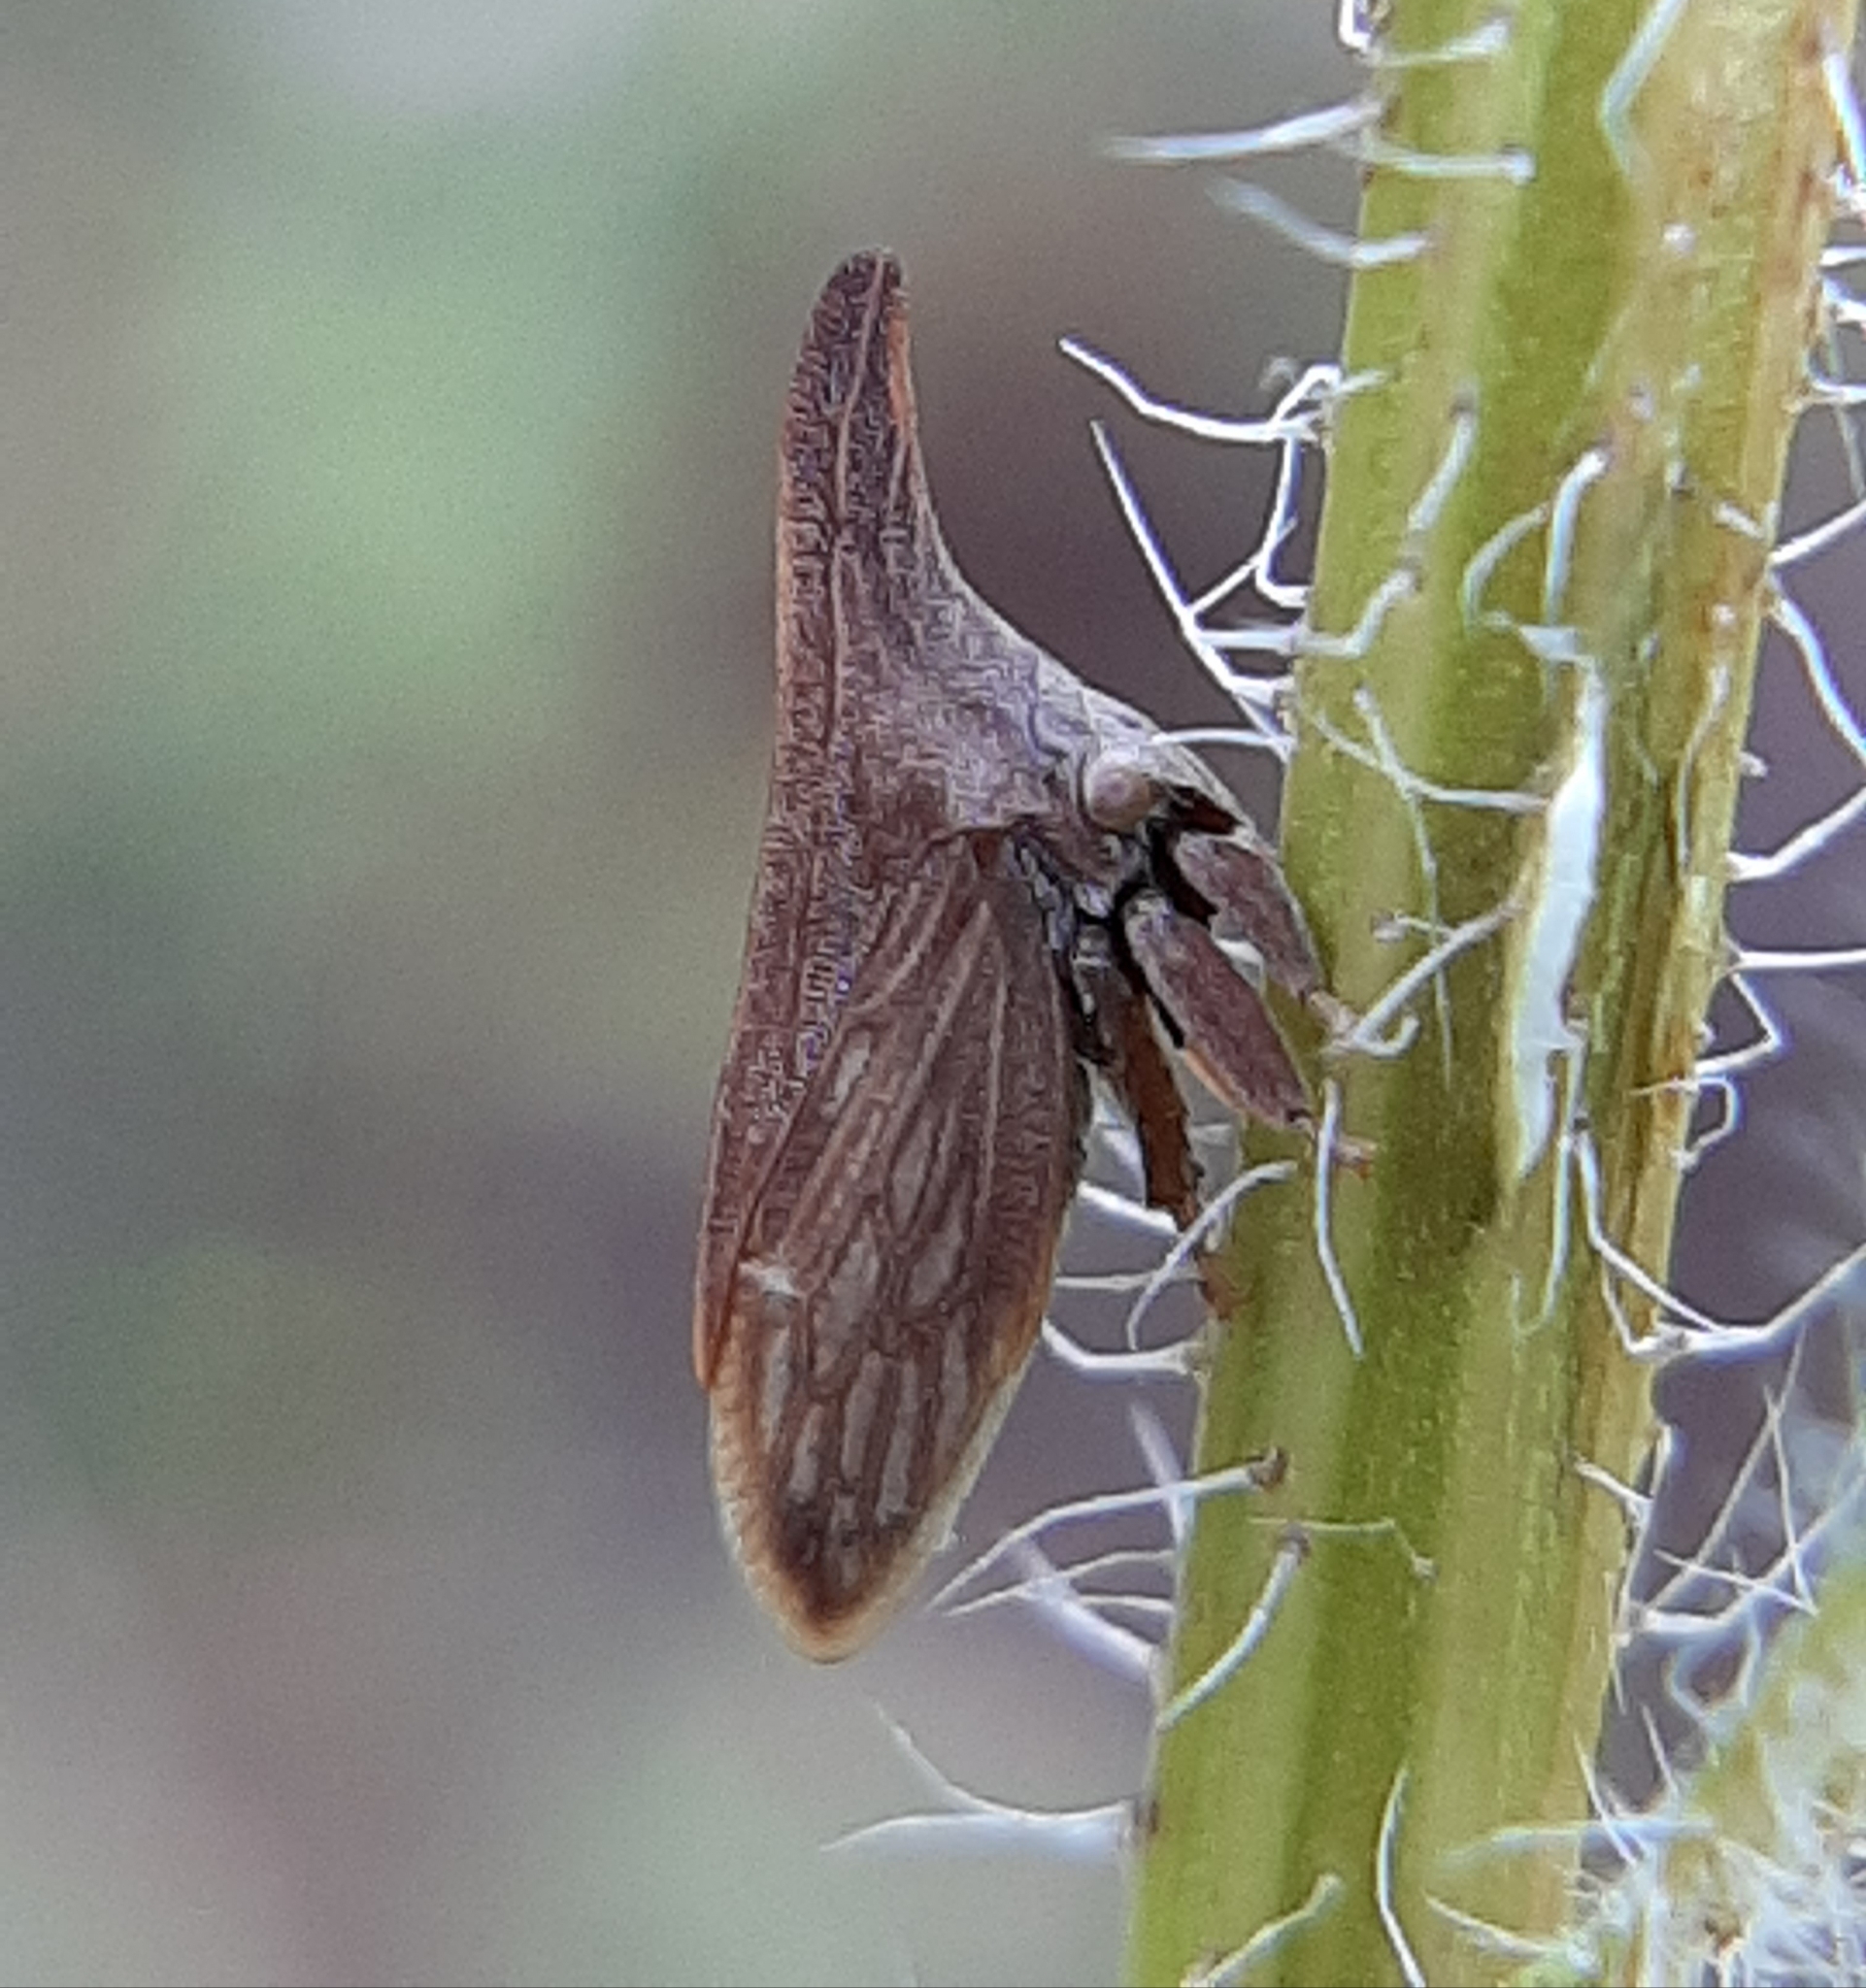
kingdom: Animalia
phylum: Arthropoda
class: Insecta
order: Hemiptera
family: Membracidae
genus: Enchenopa
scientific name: Enchenopa latipes
